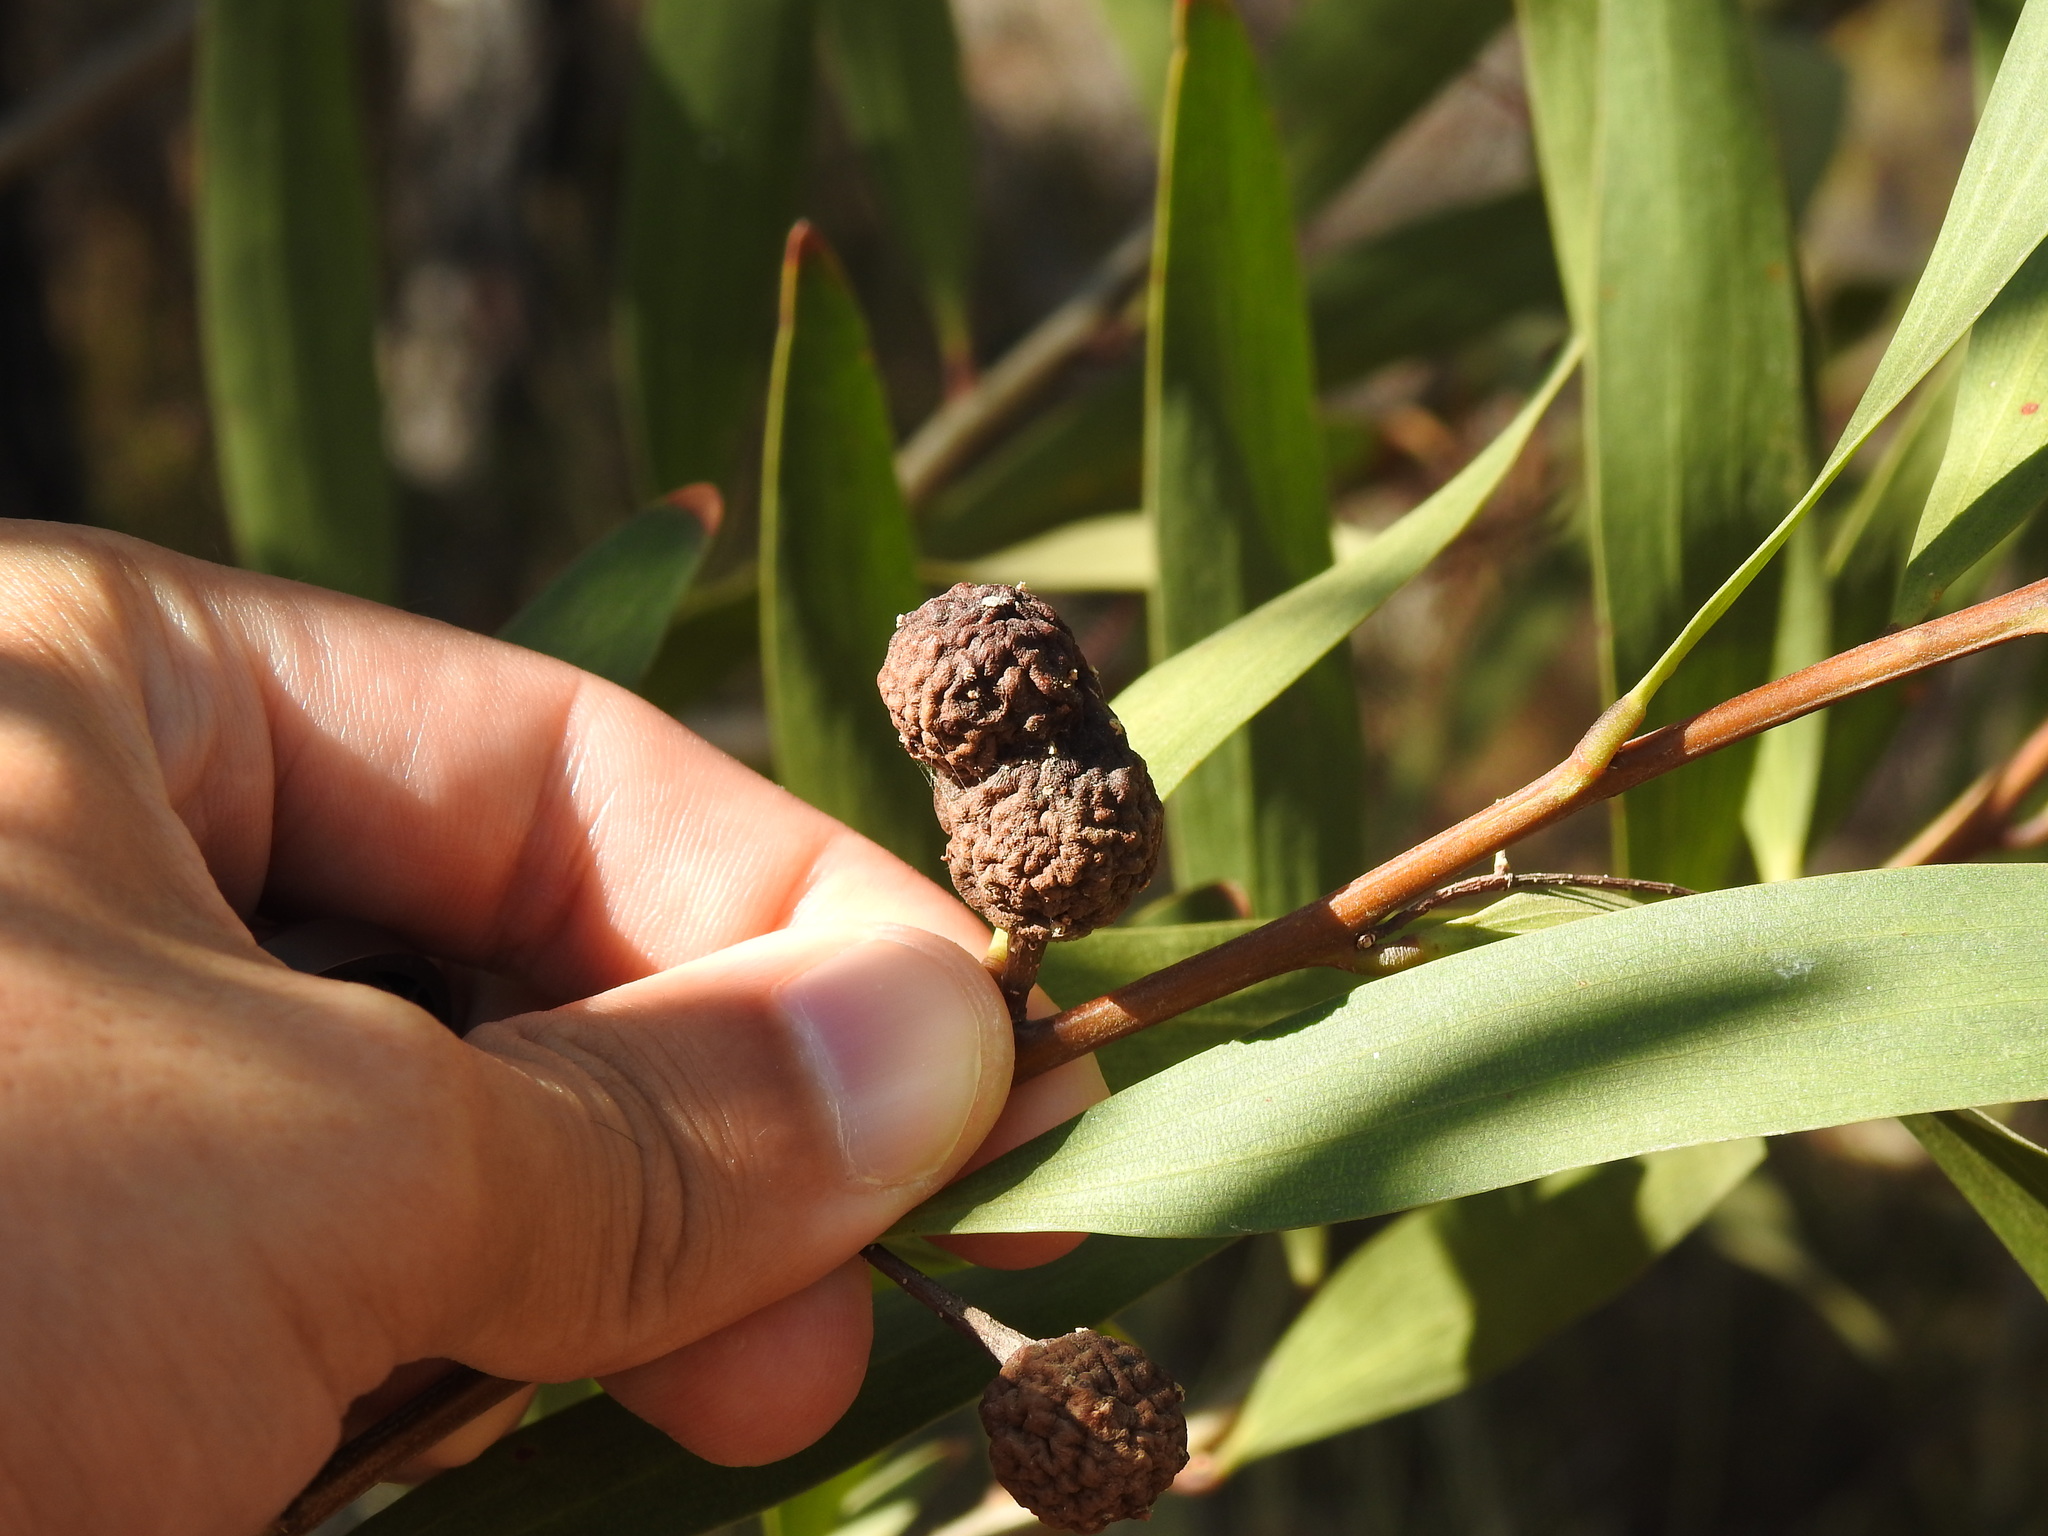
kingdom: Animalia
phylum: Arthropoda
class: Insecta
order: Hymenoptera
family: Pteromalidae
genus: Trichilogaster
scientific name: Trichilogaster acaciaelongifoliae
